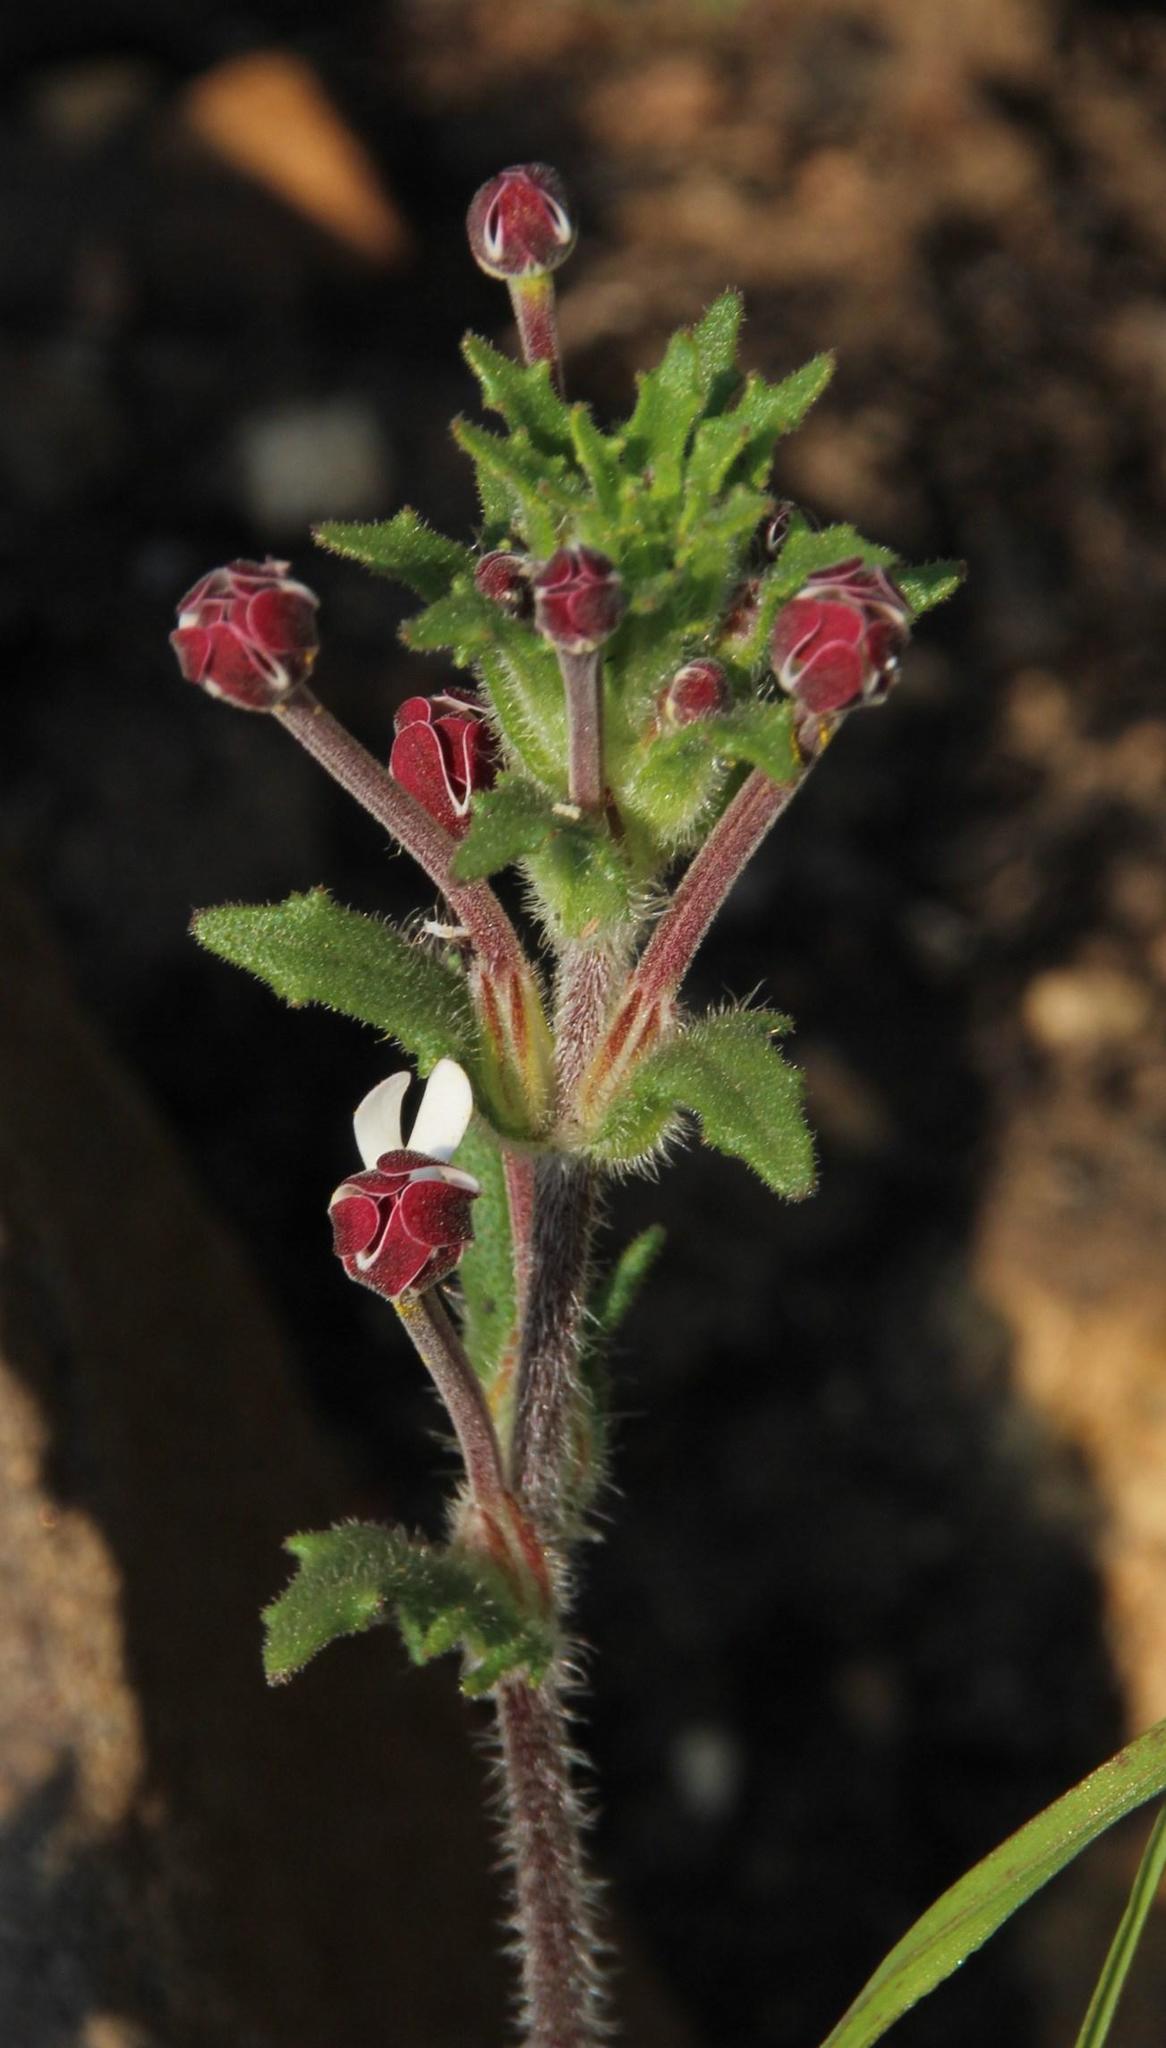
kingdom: Plantae
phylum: Tracheophyta
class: Magnoliopsida
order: Lamiales
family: Scrophulariaceae
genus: Zaluzianskya
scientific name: Zaluzianskya capensis
